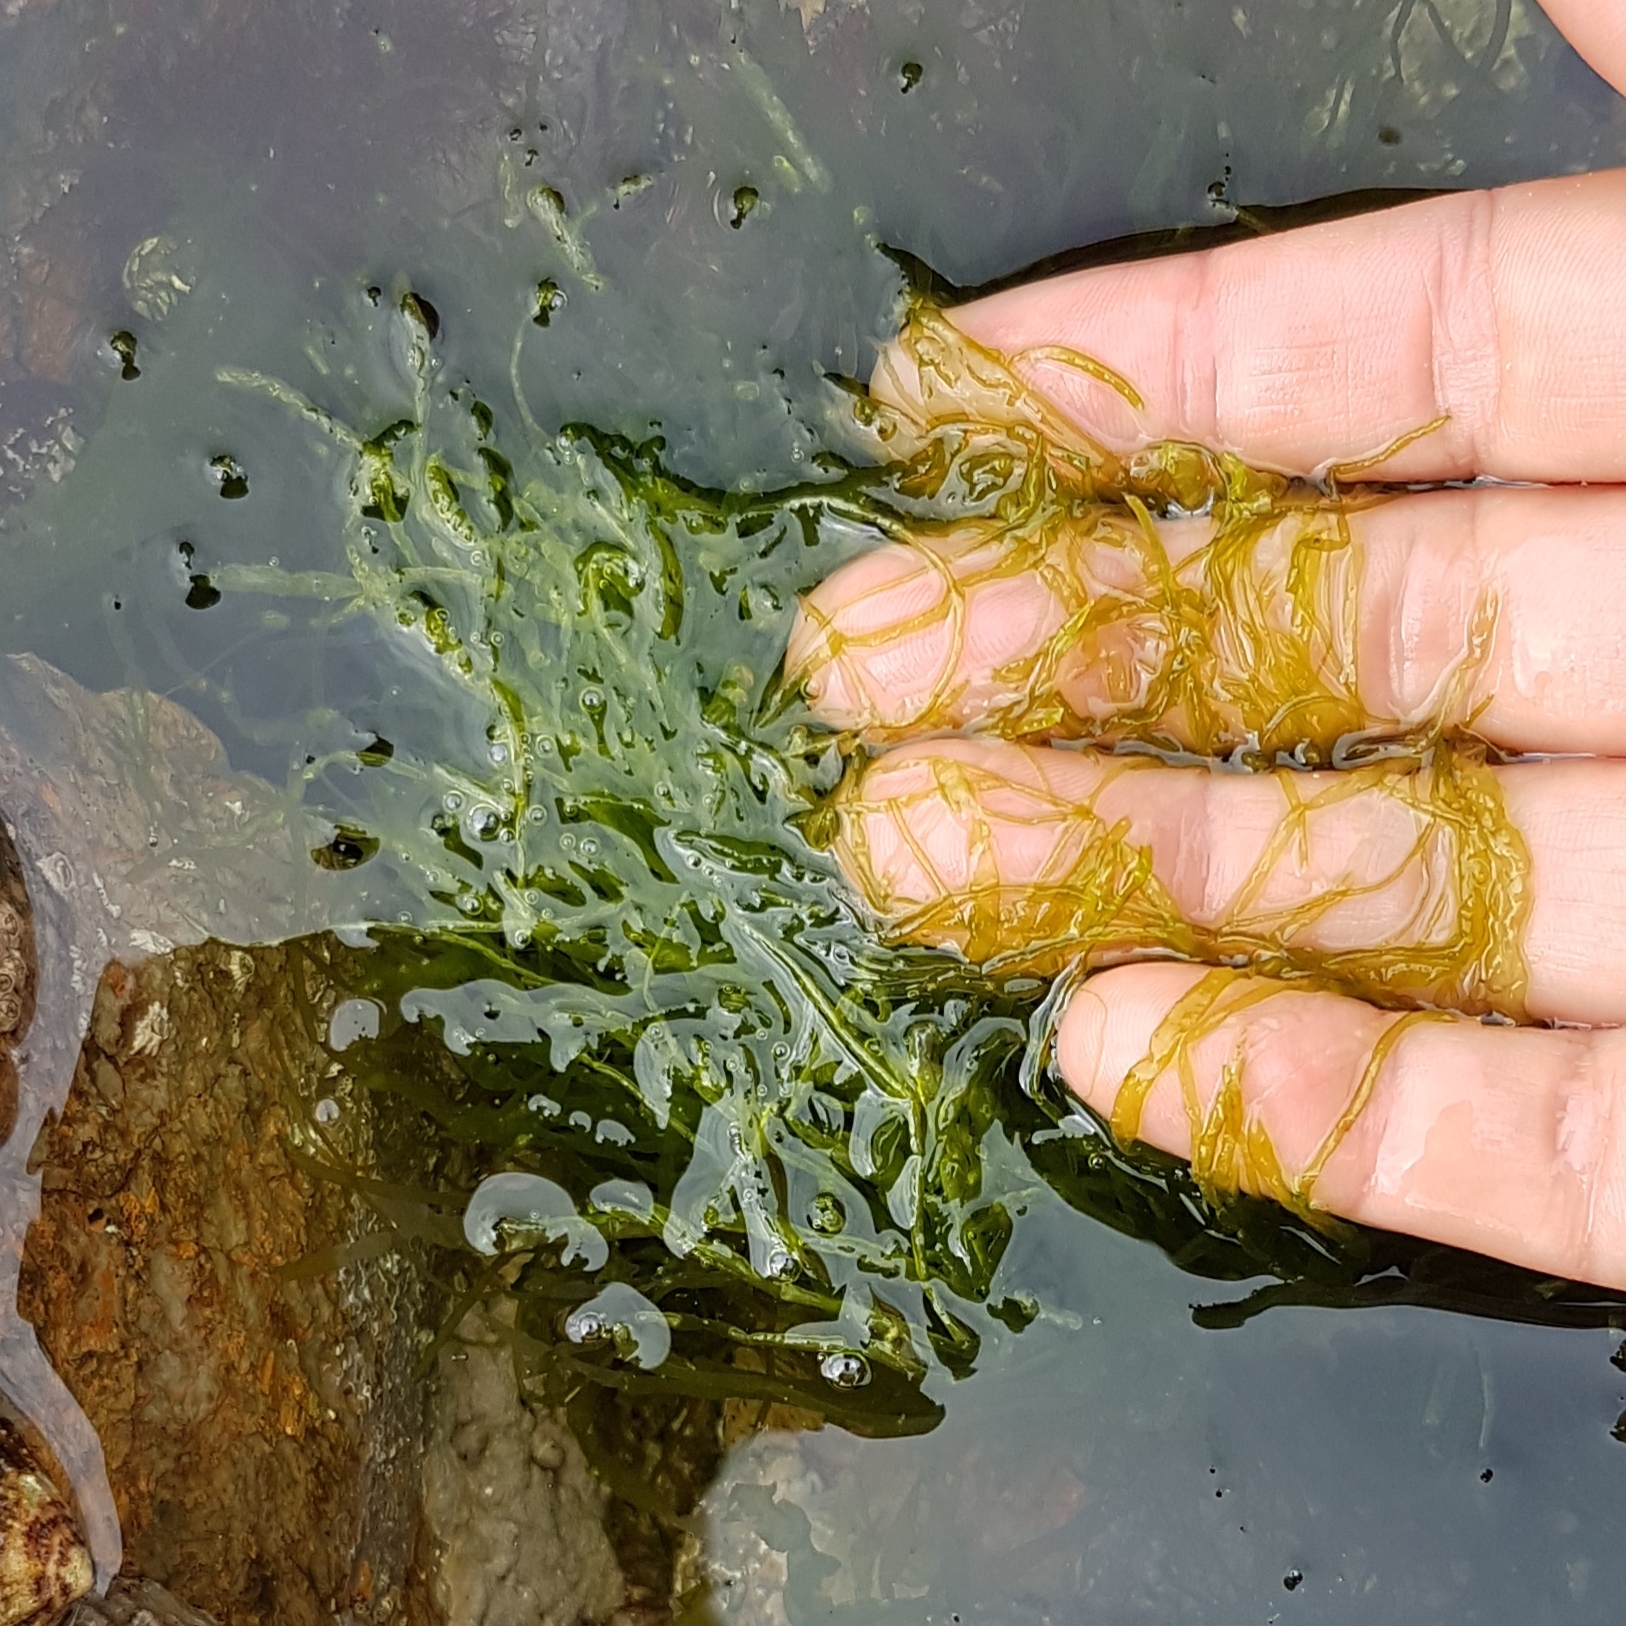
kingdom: Plantae
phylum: Chlorophyta
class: Ulvophyceae
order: Ulvales
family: Ulvaceae
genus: Ulva
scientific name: Ulva intestinalis
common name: Gut weed
